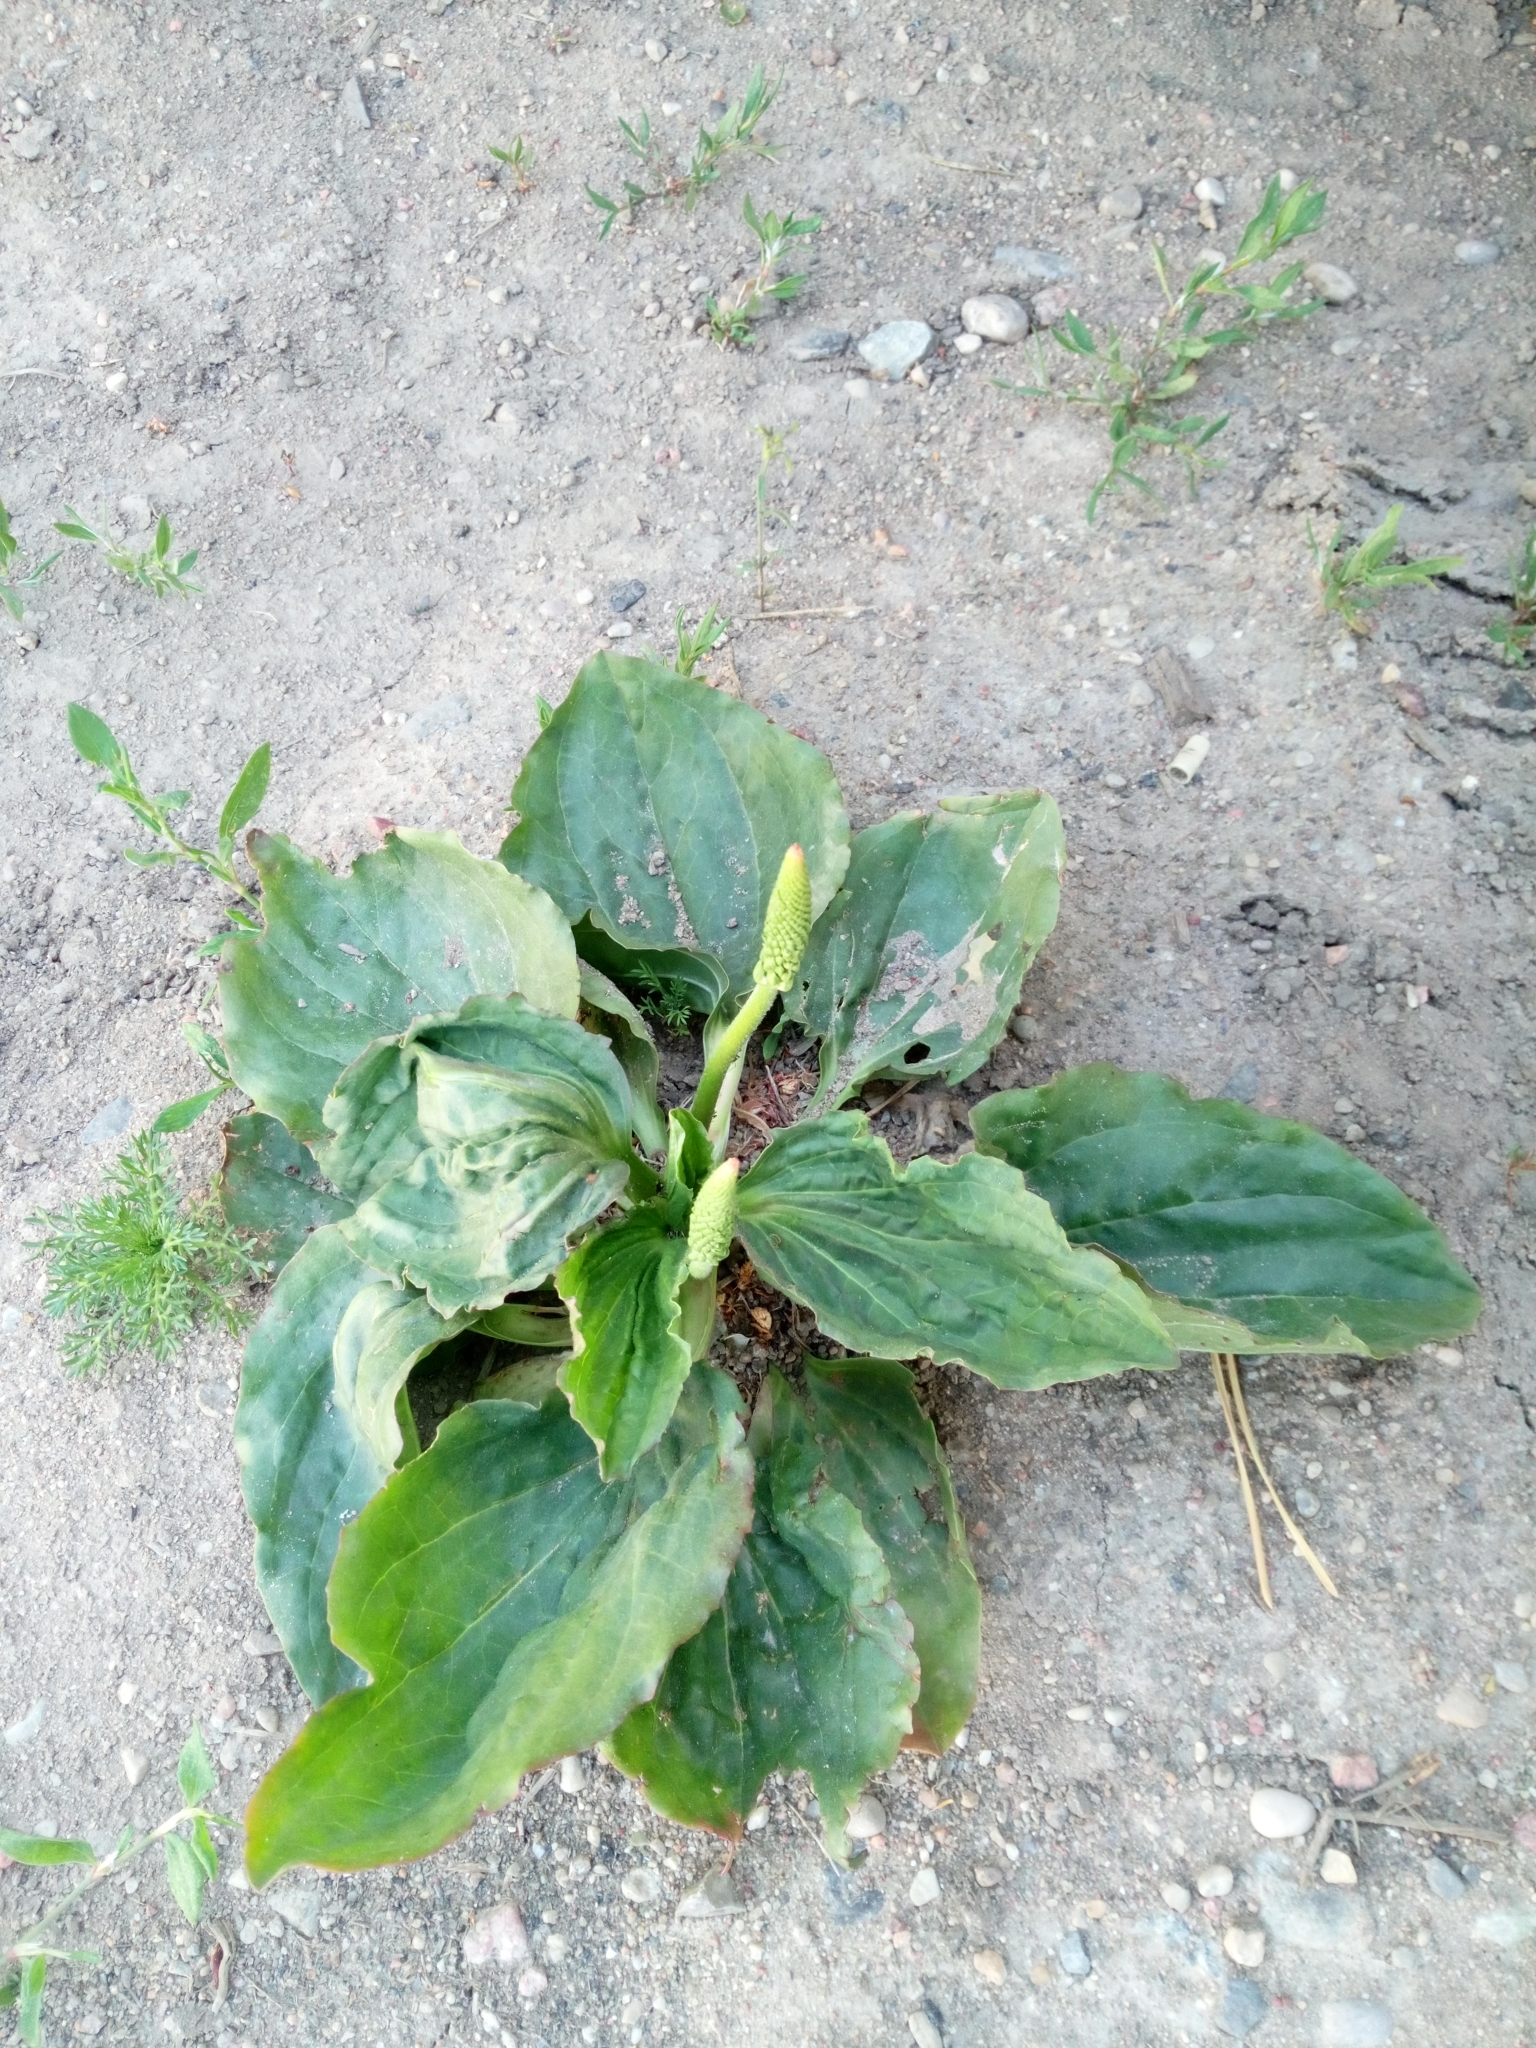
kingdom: Plantae
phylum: Tracheophyta
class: Magnoliopsida
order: Lamiales
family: Plantaginaceae
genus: Plantago
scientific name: Plantago major
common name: Common plantain
